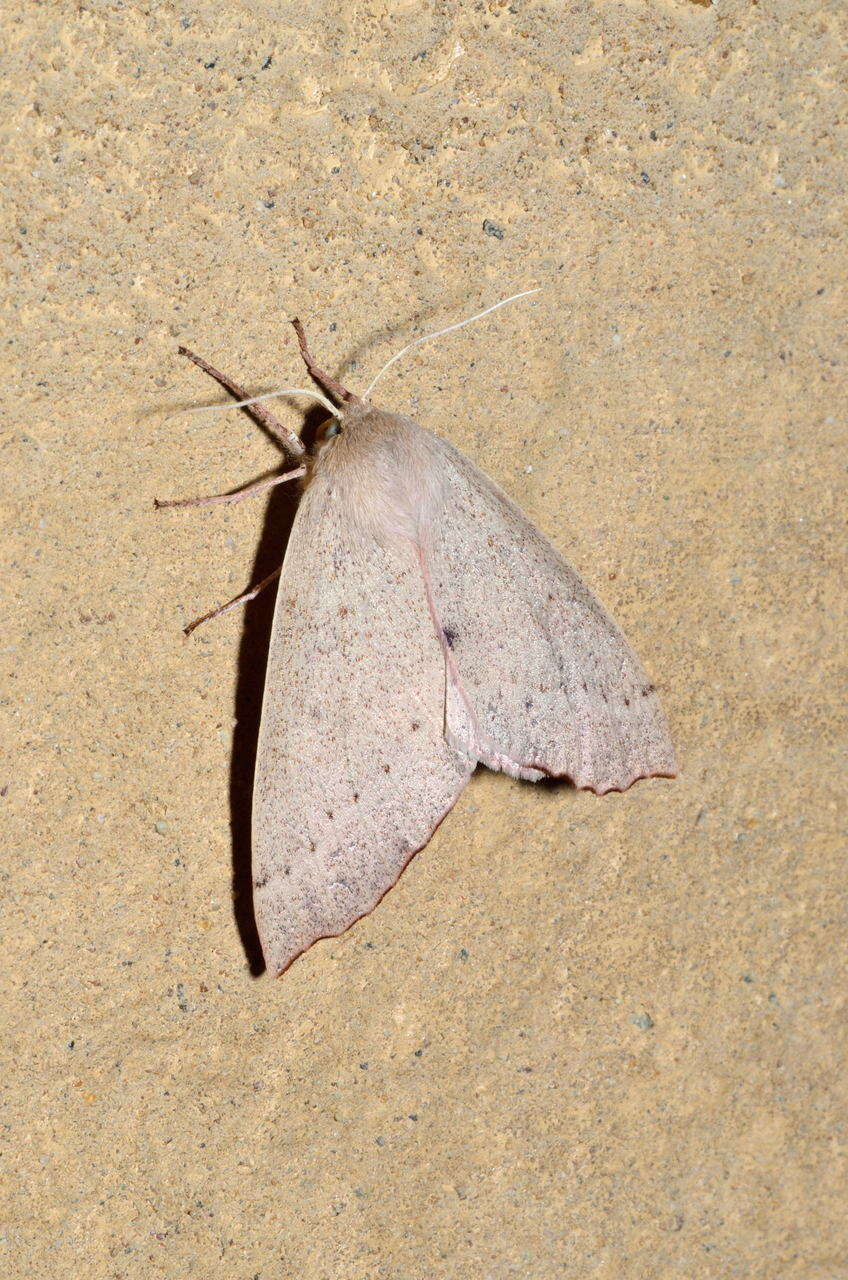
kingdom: Animalia
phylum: Arthropoda
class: Insecta
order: Lepidoptera
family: Geometridae
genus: Arhodia
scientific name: Arhodia lasiocamparia
